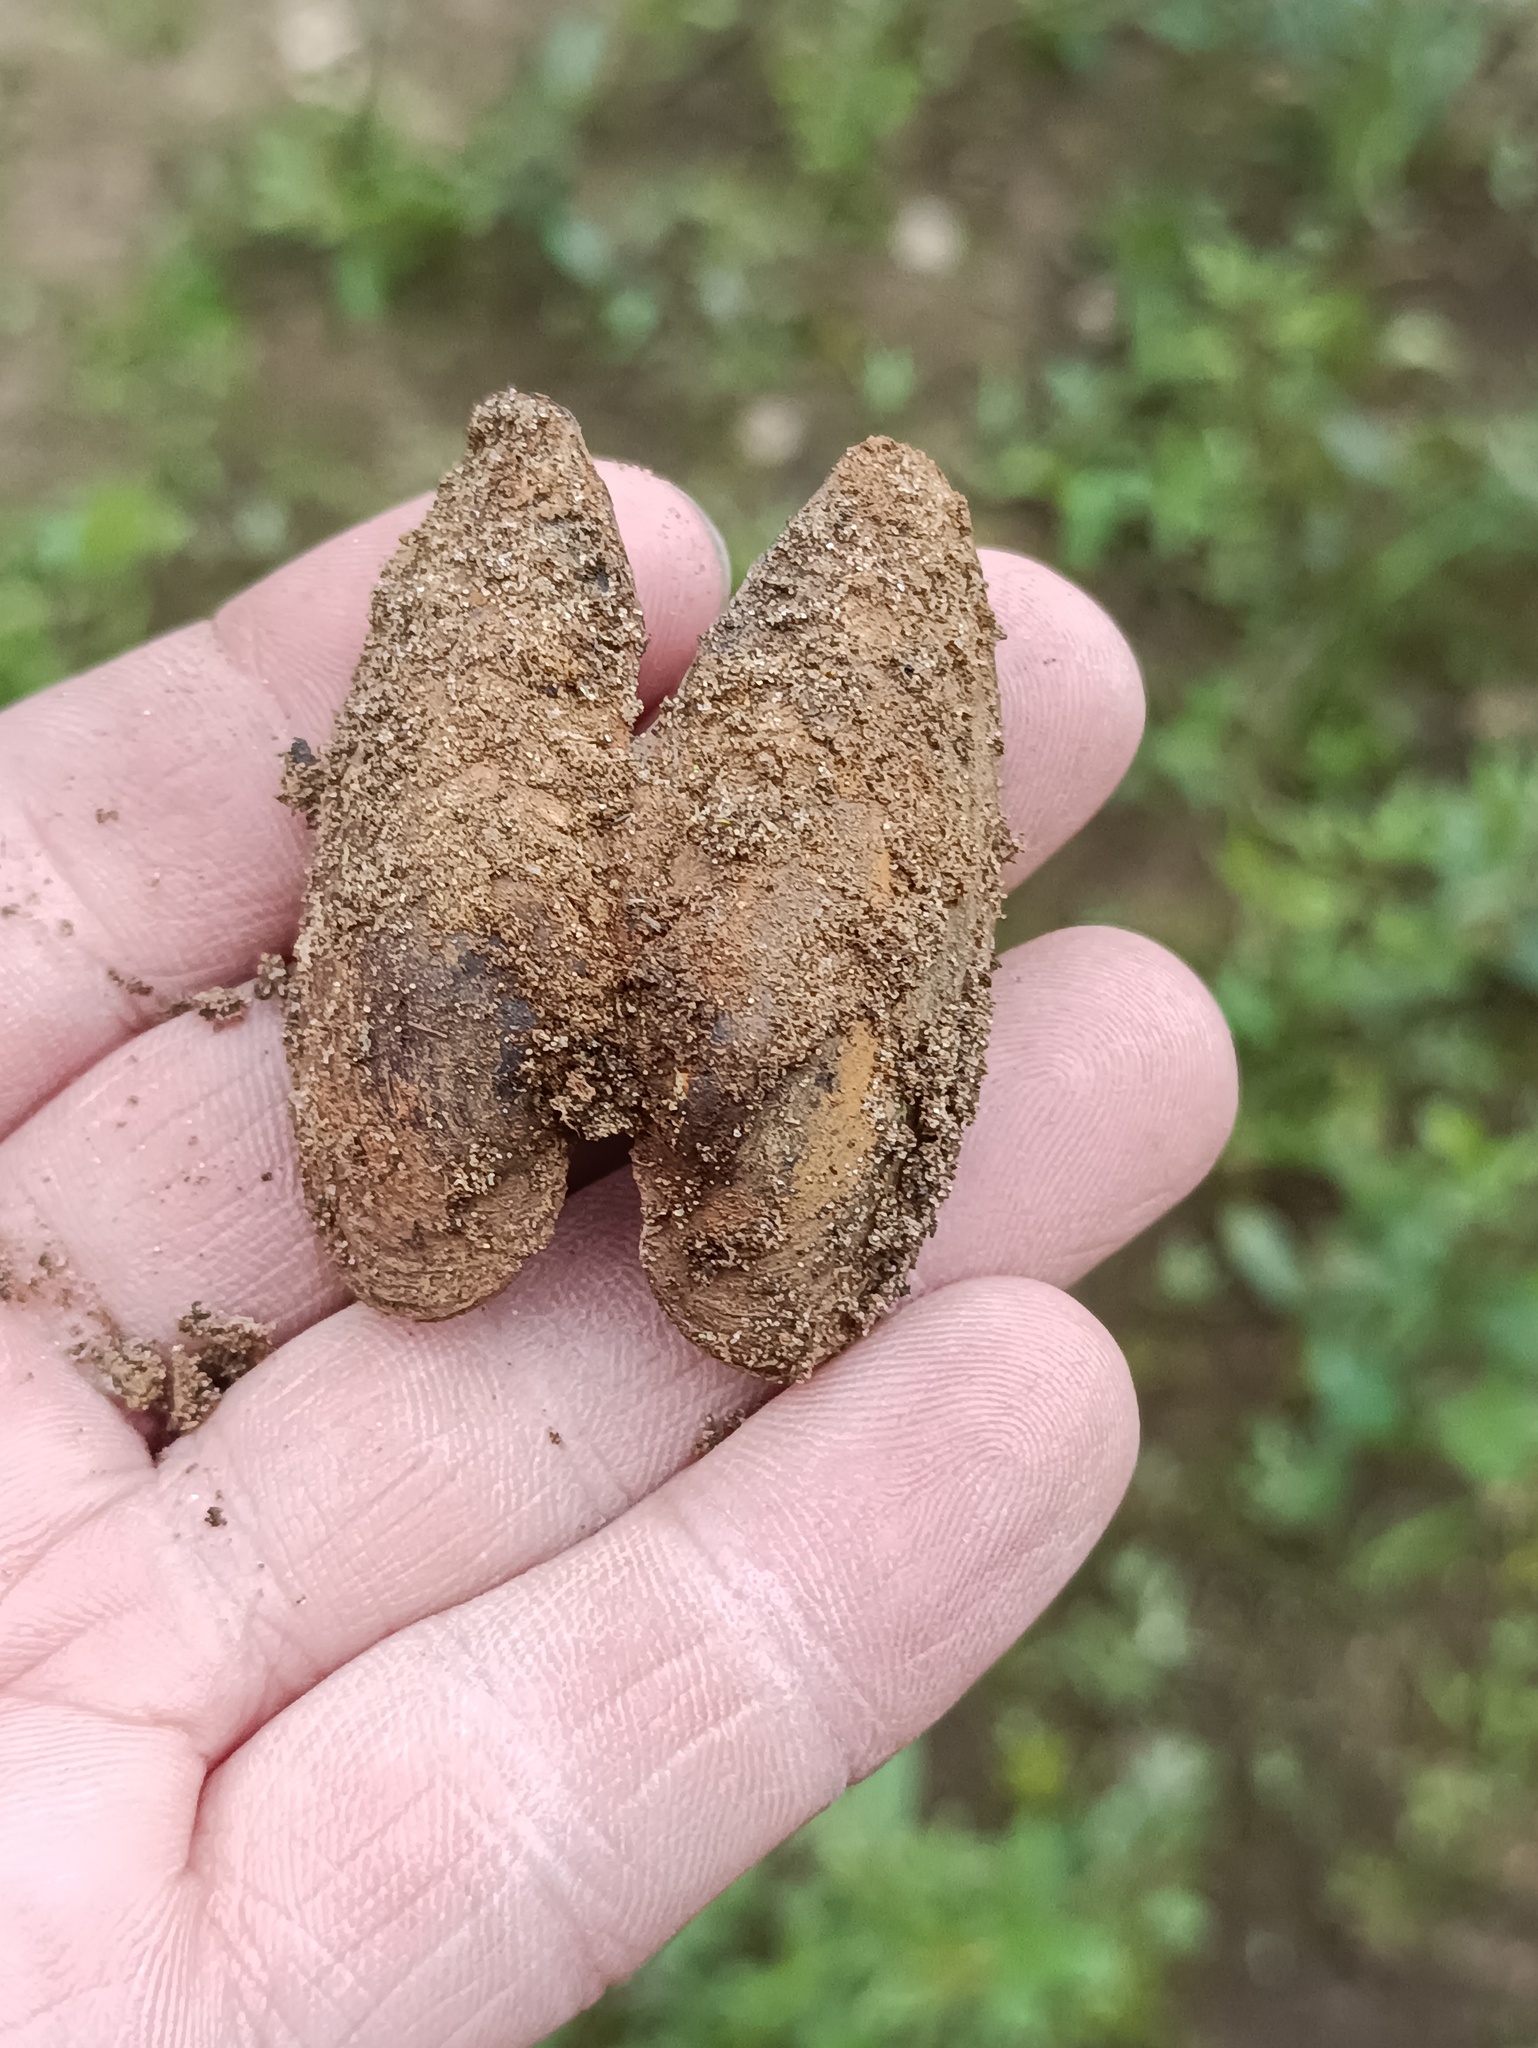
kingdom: Animalia
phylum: Mollusca
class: Bivalvia
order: Unionida
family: Unionidae
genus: Unio
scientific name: Unio pictorum
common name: Painter's mussel
